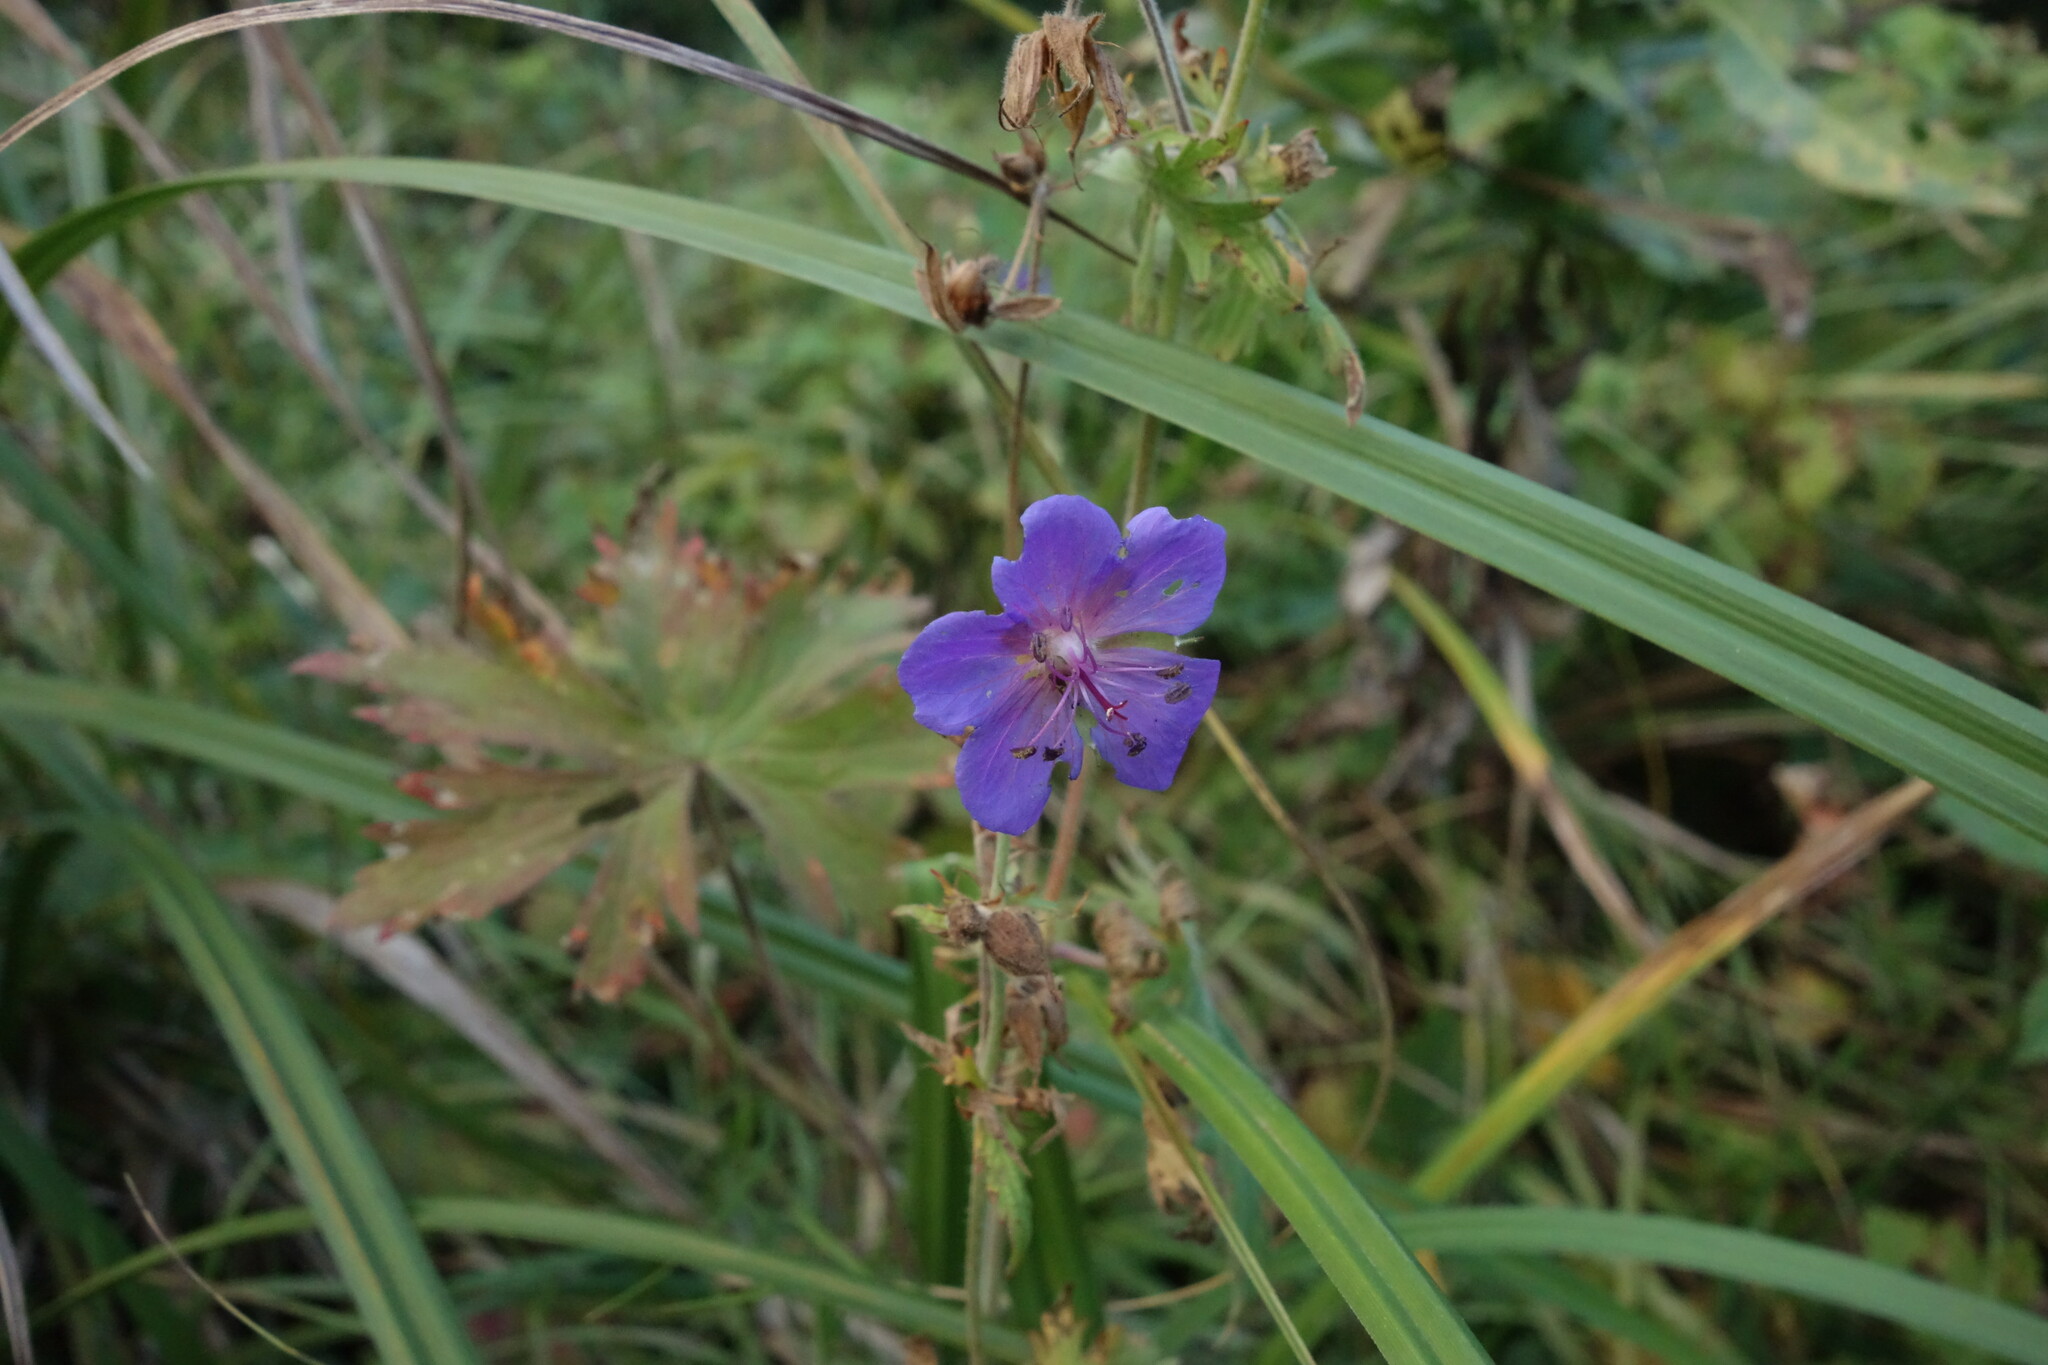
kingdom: Plantae
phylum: Tracheophyta
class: Magnoliopsida
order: Geraniales
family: Geraniaceae
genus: Geranium
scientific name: Geranium pratense
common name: Meadow crane's-bill
